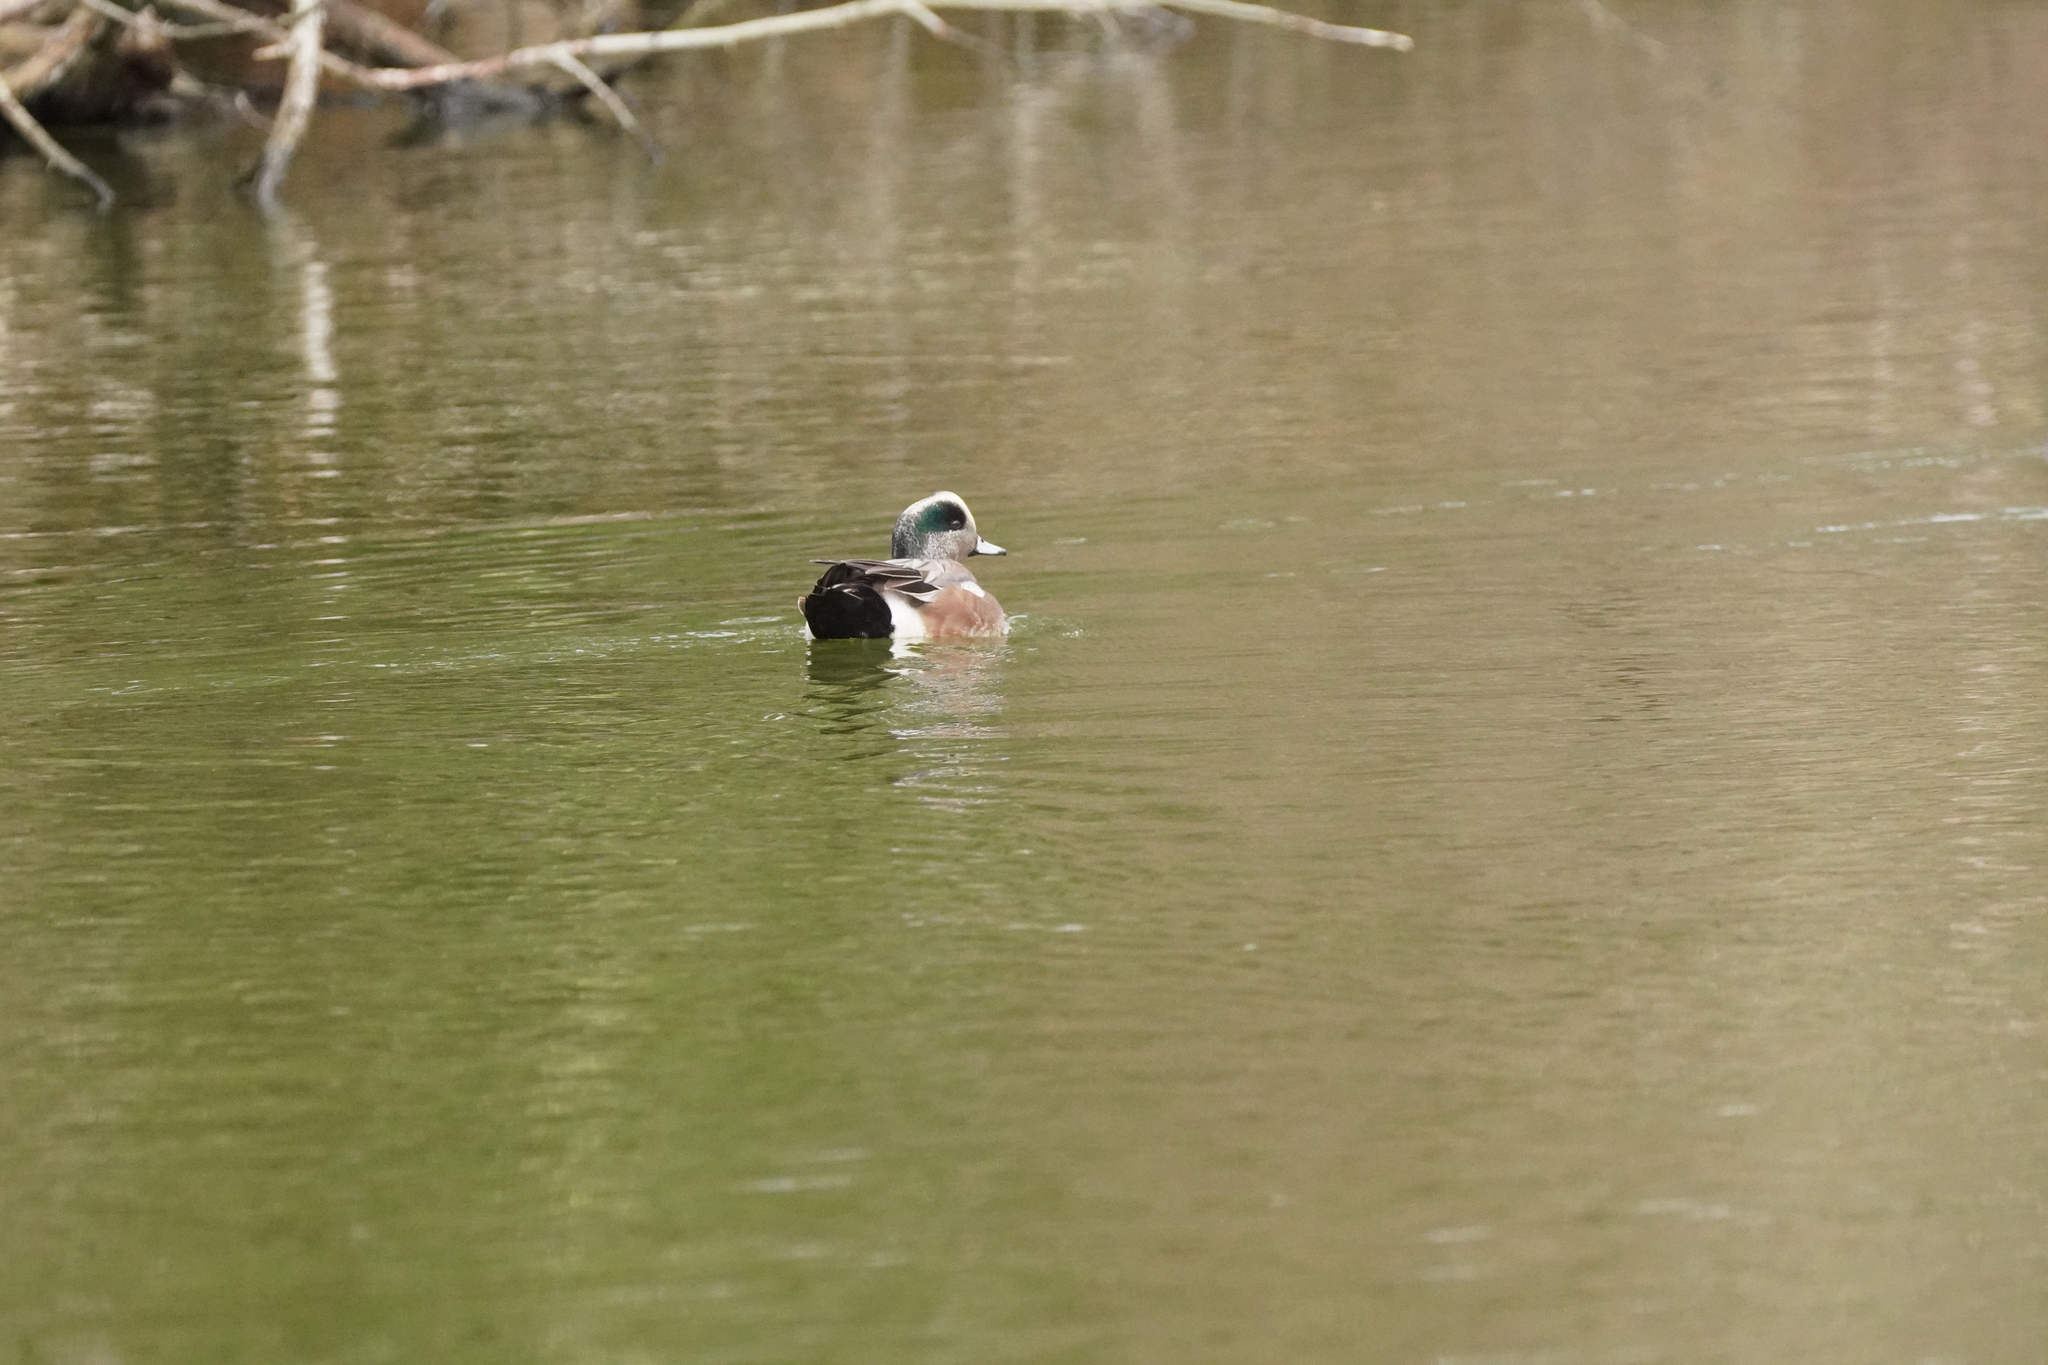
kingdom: Animalia
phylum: Chordata
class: Aves
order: Anseriformes
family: Anatidae
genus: Mareca
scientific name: Mareca americana
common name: American wigeon
